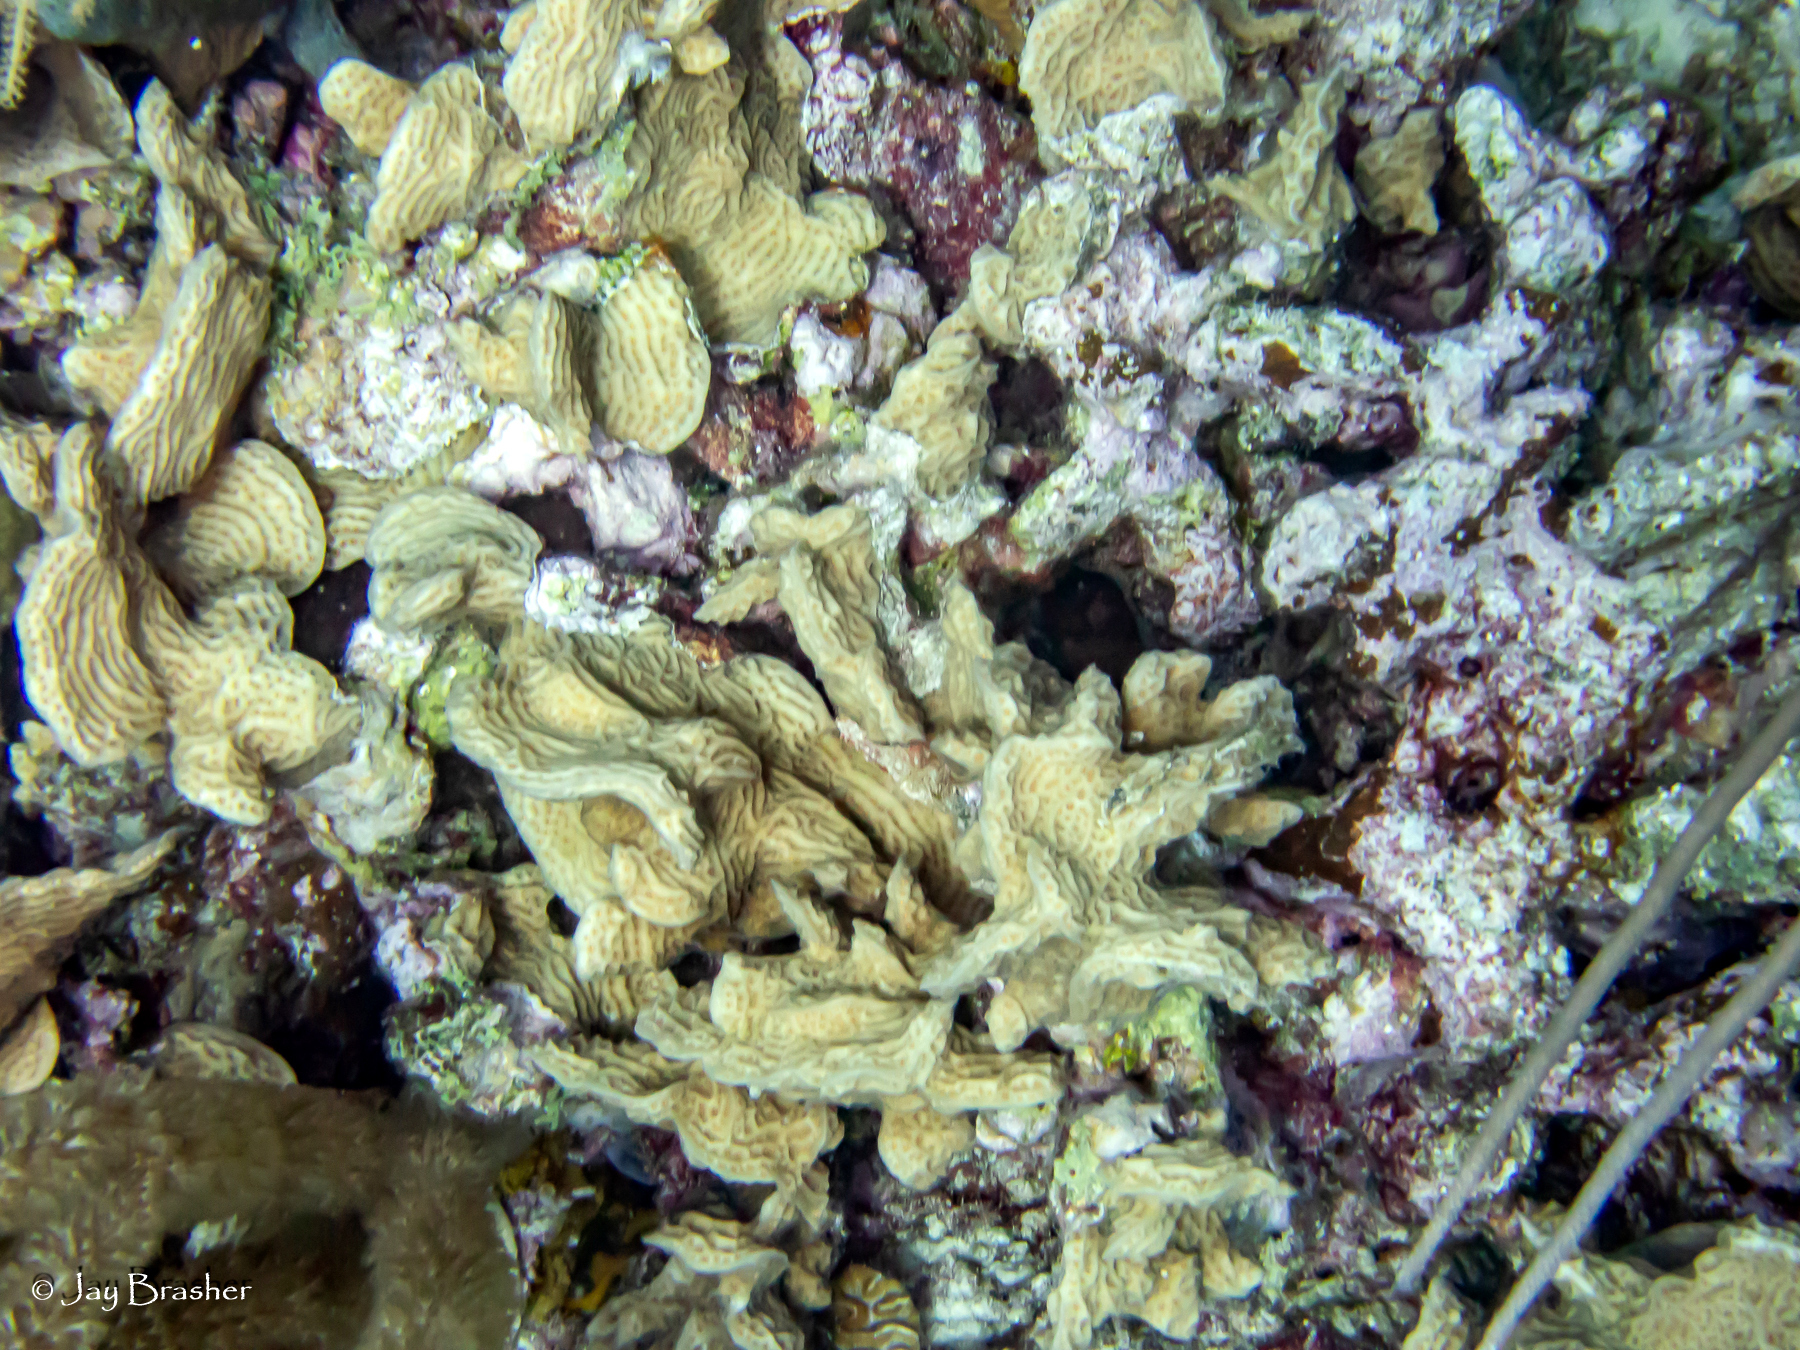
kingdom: Animalia
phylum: Cnidaria
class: Anthozoa
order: Scleractinia
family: Agariciidae
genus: Agaricia
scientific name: Agaricia agaricites
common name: Lettuce coral
